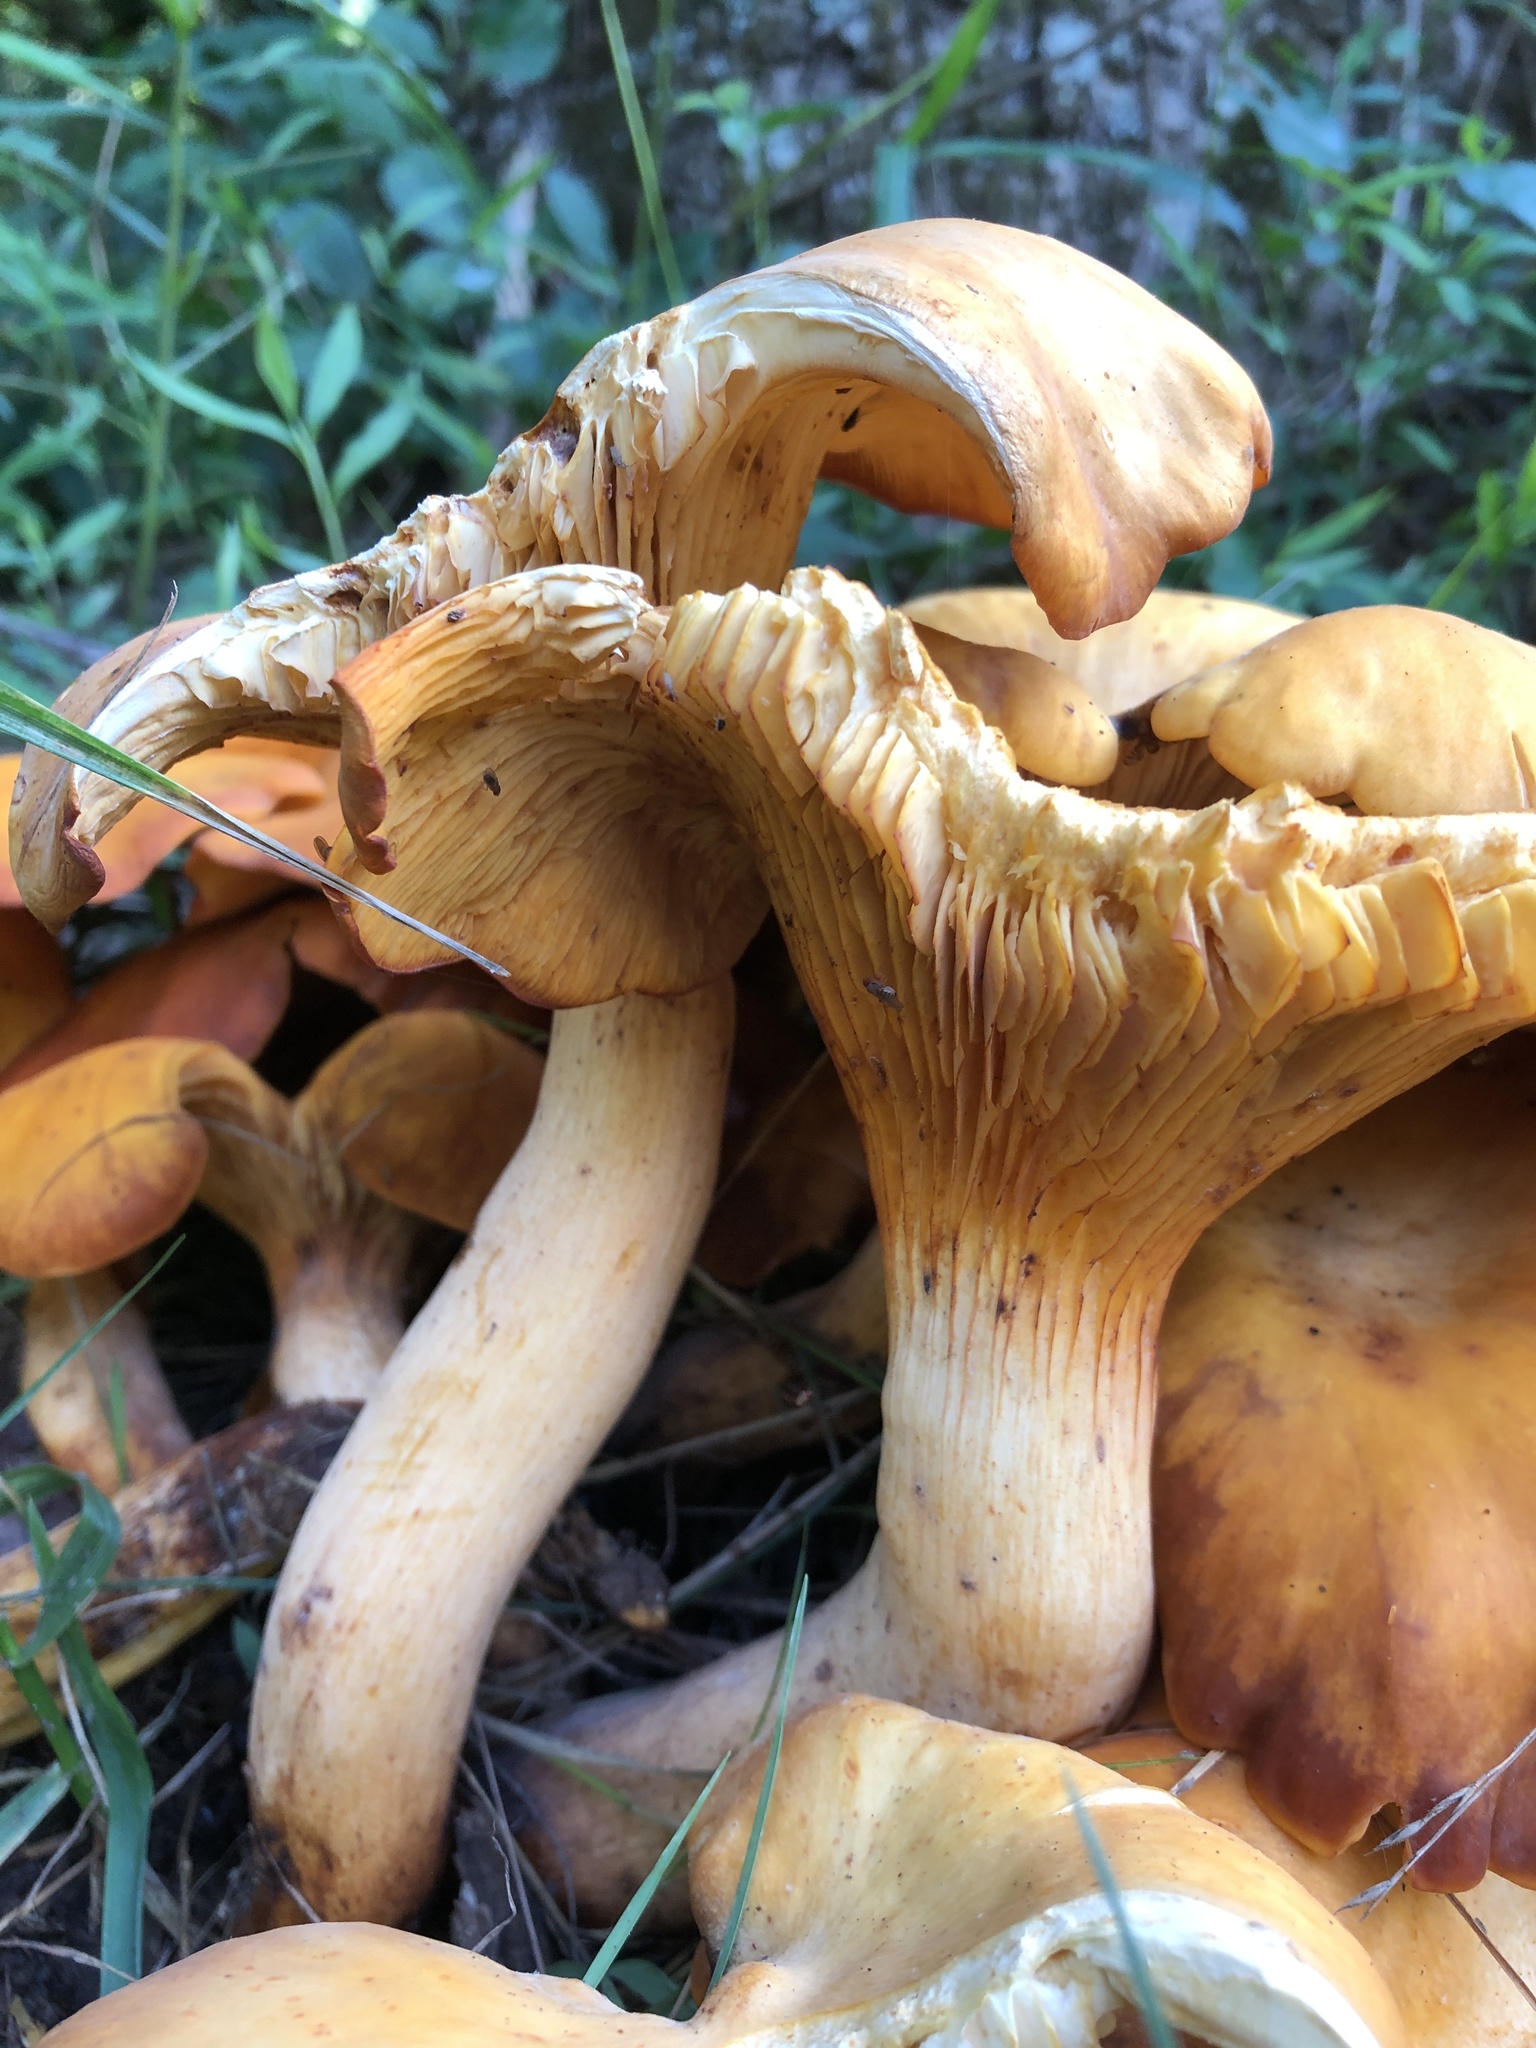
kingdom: Fungi
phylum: Basidiomycota
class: Agaricomycetes
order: Agaricales
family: Omphalotaceae
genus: Omphalotus
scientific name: Omphalotus illudens
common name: Jack o lantern
